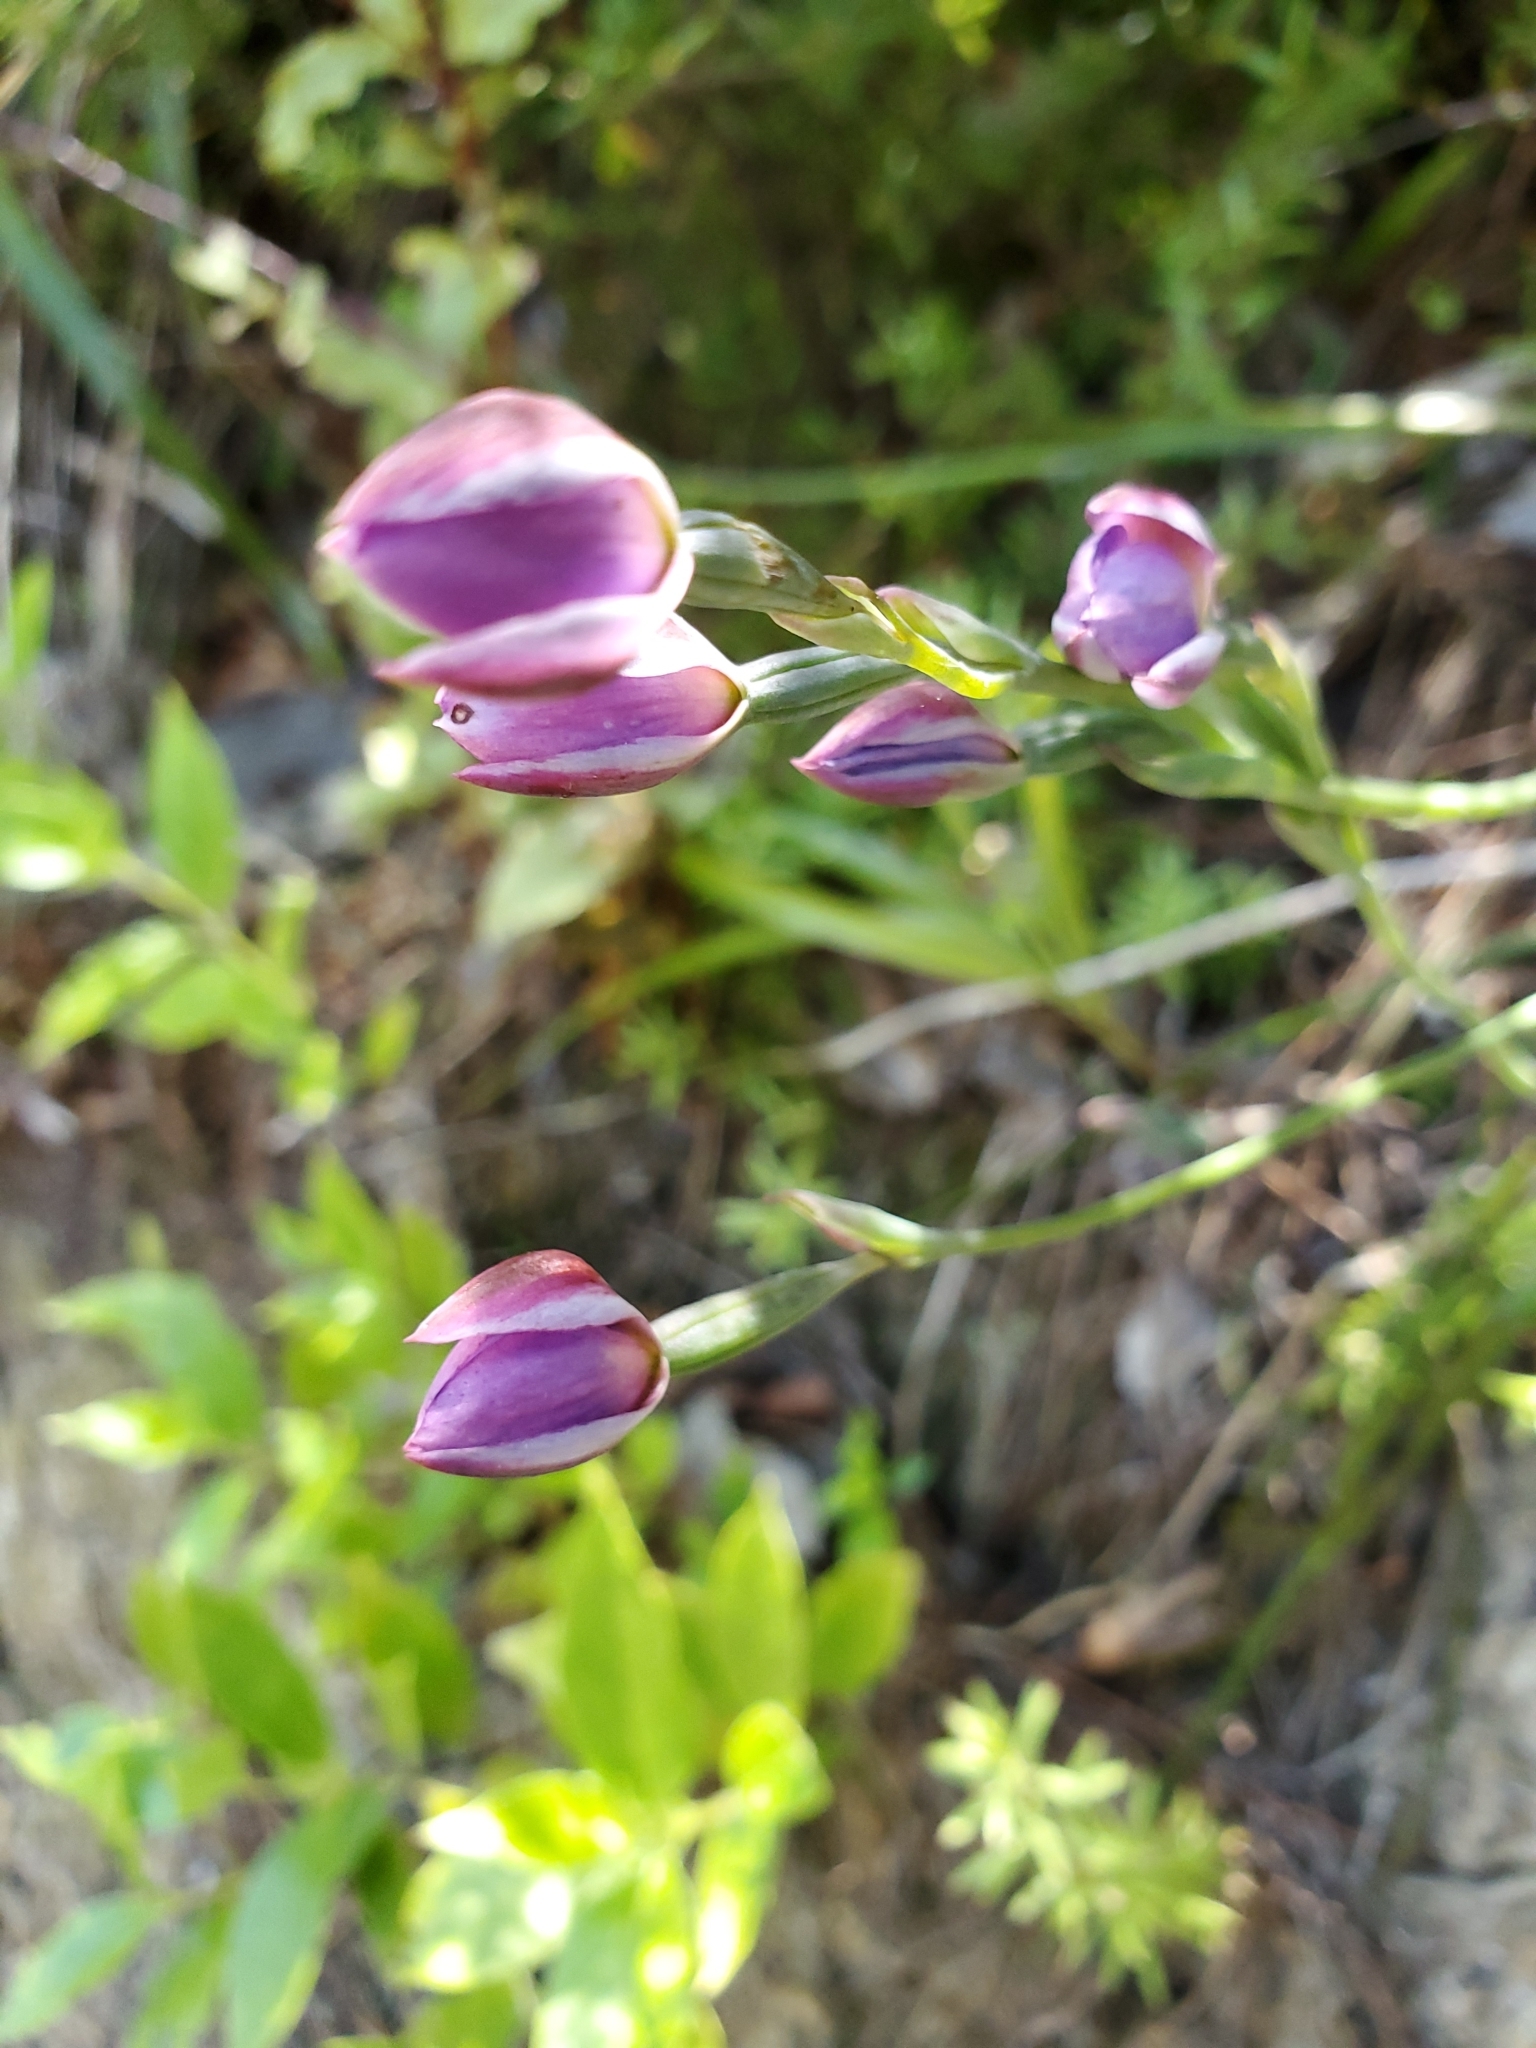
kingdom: Plantae
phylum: Tracheophyta
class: Liliopsida
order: Asparagales
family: Orchidaceae
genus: Thelymitra
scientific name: Thelymitra nervosa
